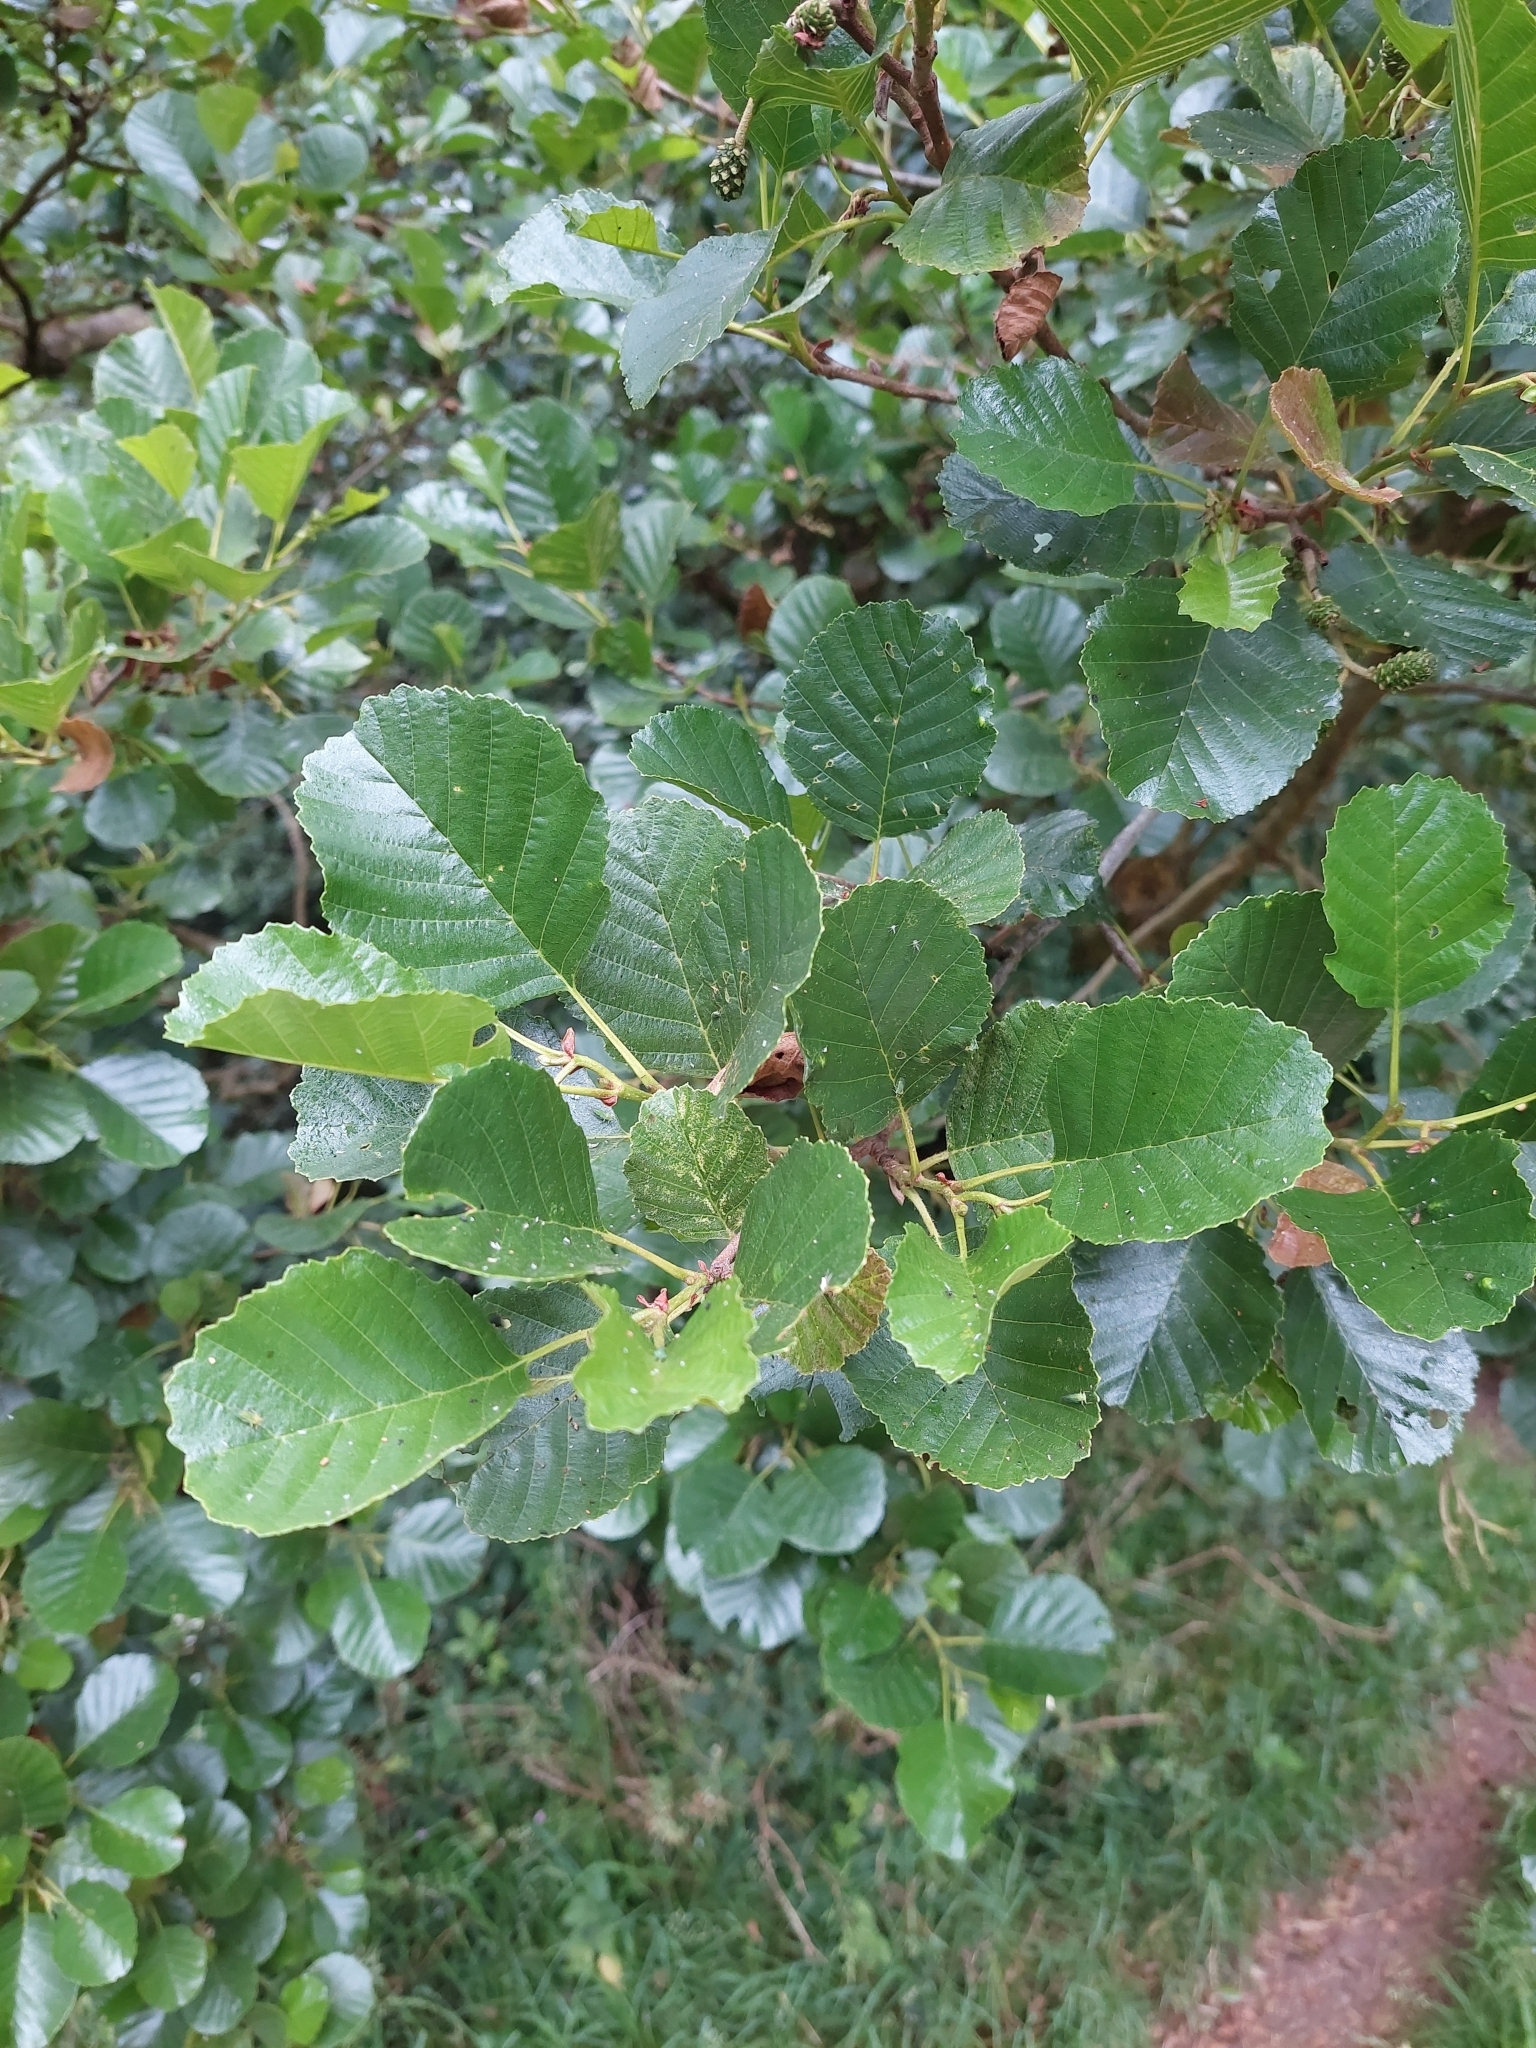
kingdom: Plantae
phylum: Tracheophyta
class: Magnoliopsida
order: Fagales
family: Betulaceae
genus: Alnus
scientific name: Alnus glutinosa
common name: Black alder
